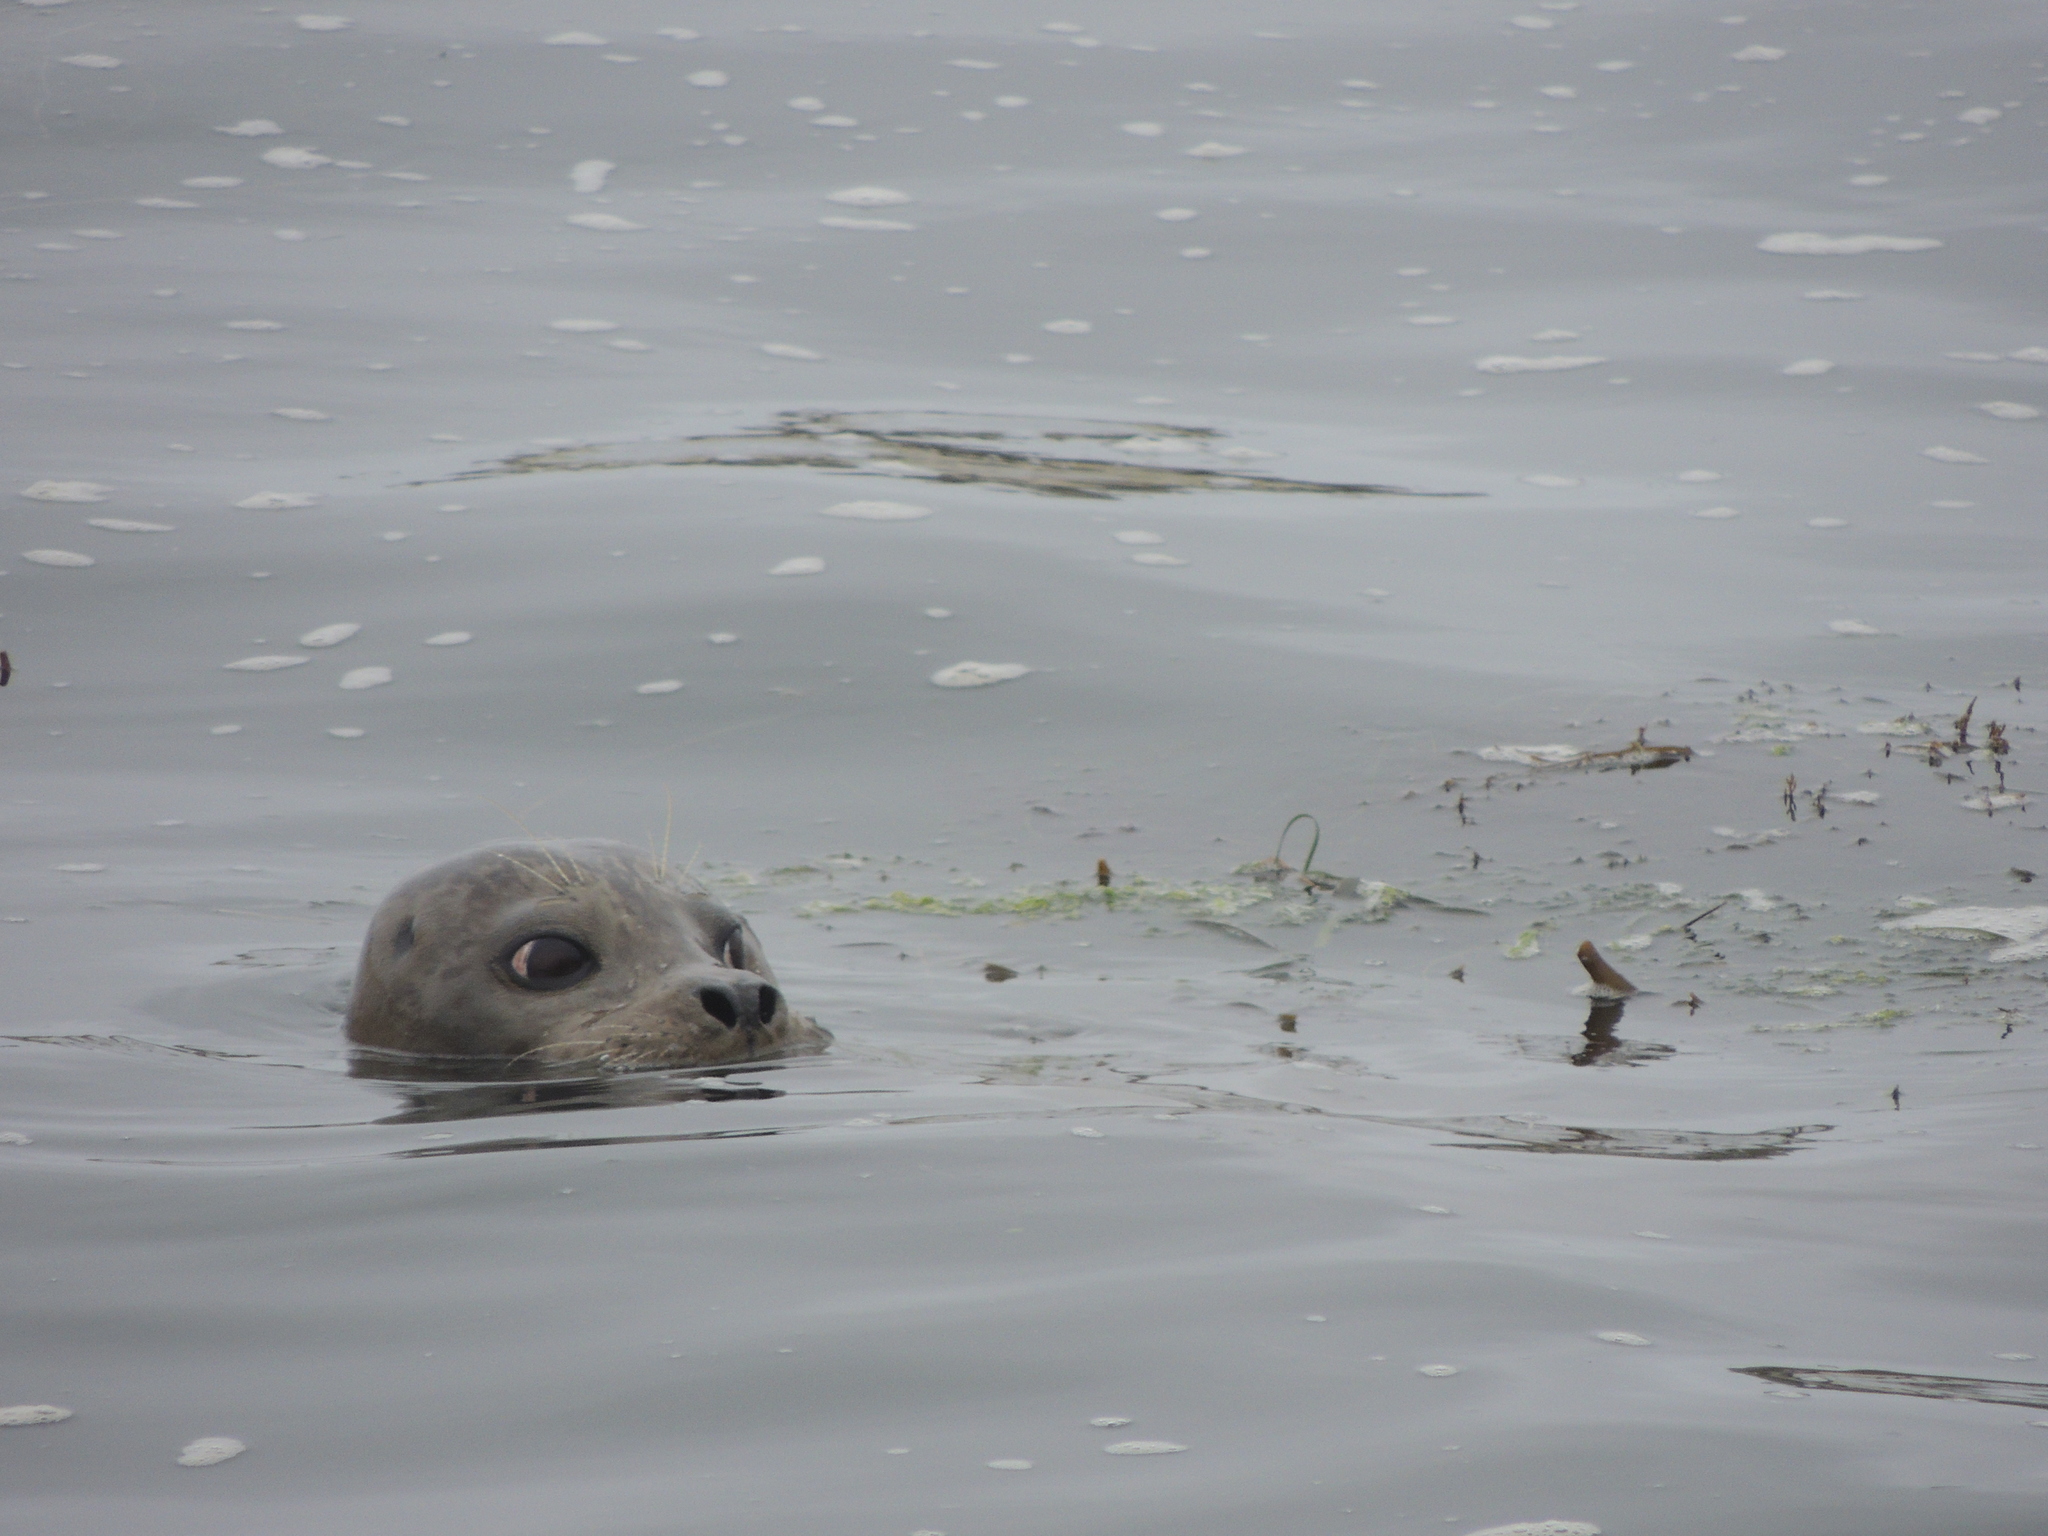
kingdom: Animalia
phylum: Chordata
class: Mammalia
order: Carnivora
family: Phocidae
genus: Phoca
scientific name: Phoca vitulina
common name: Harbor seal
